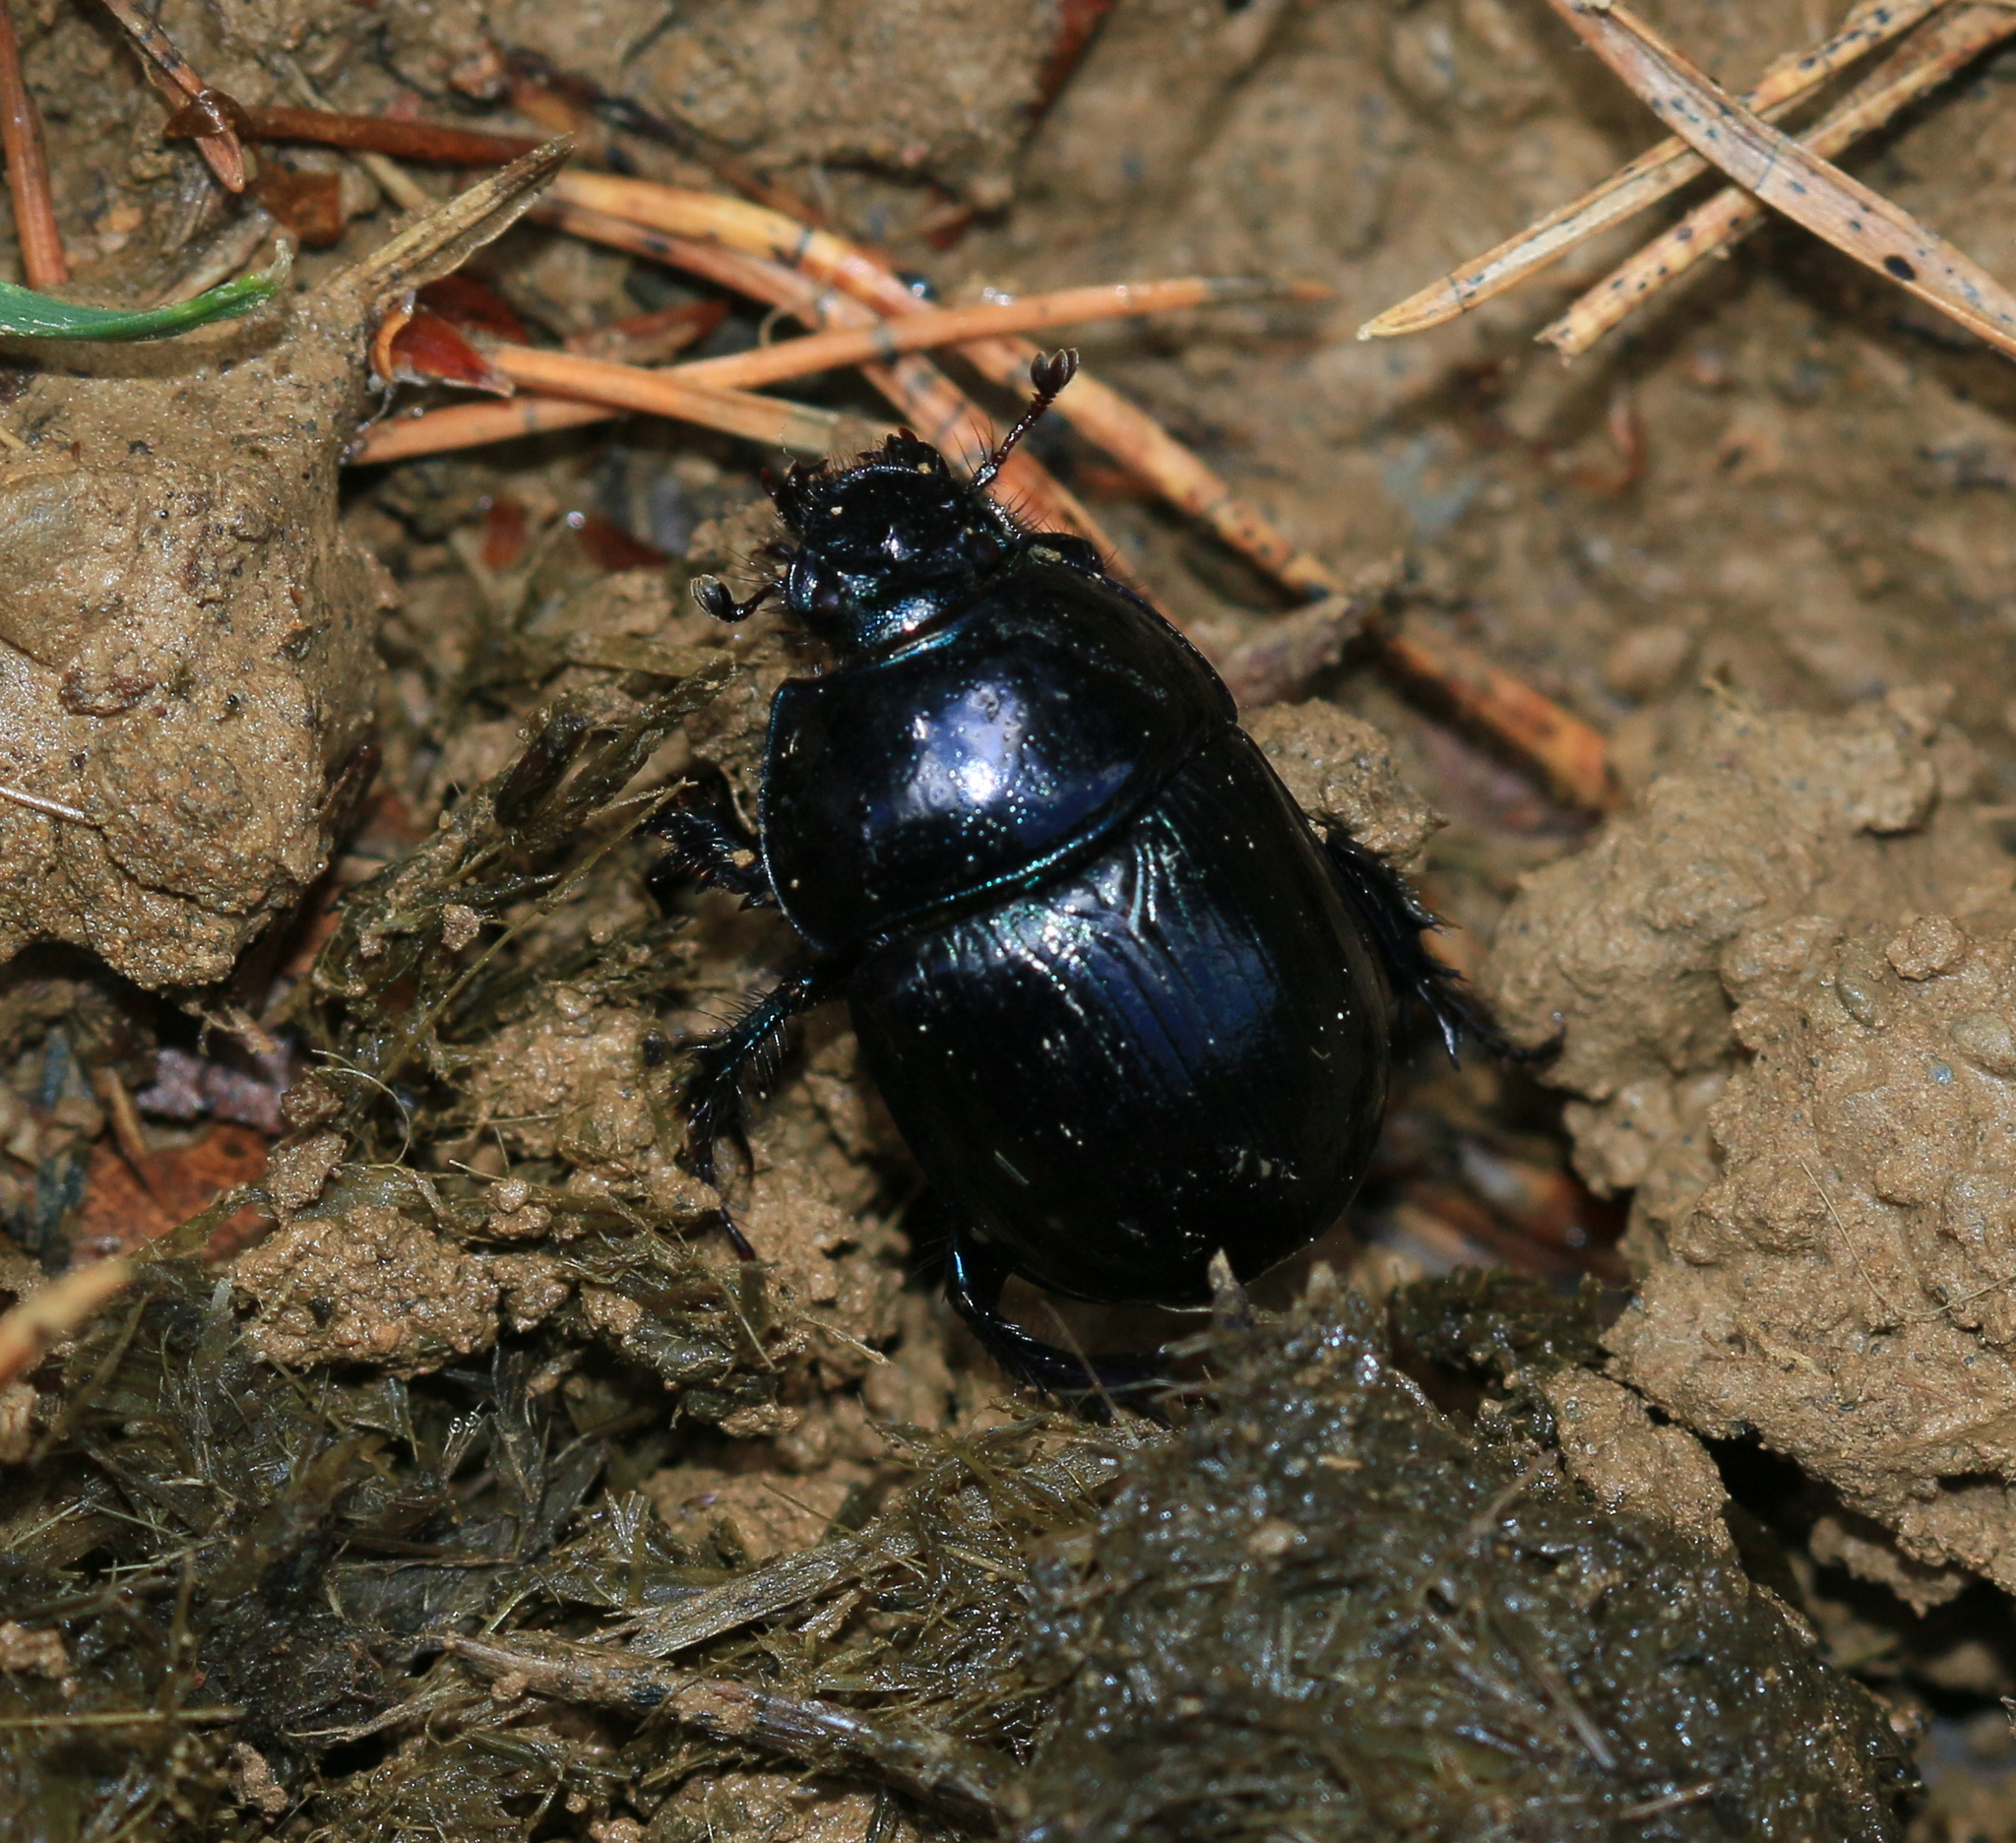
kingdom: Animalia
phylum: Arthropoda
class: Insecta
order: Coleoptera
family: Geotrupidae
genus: Anoplotrupes
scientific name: Anoplotrupes stercorosus
